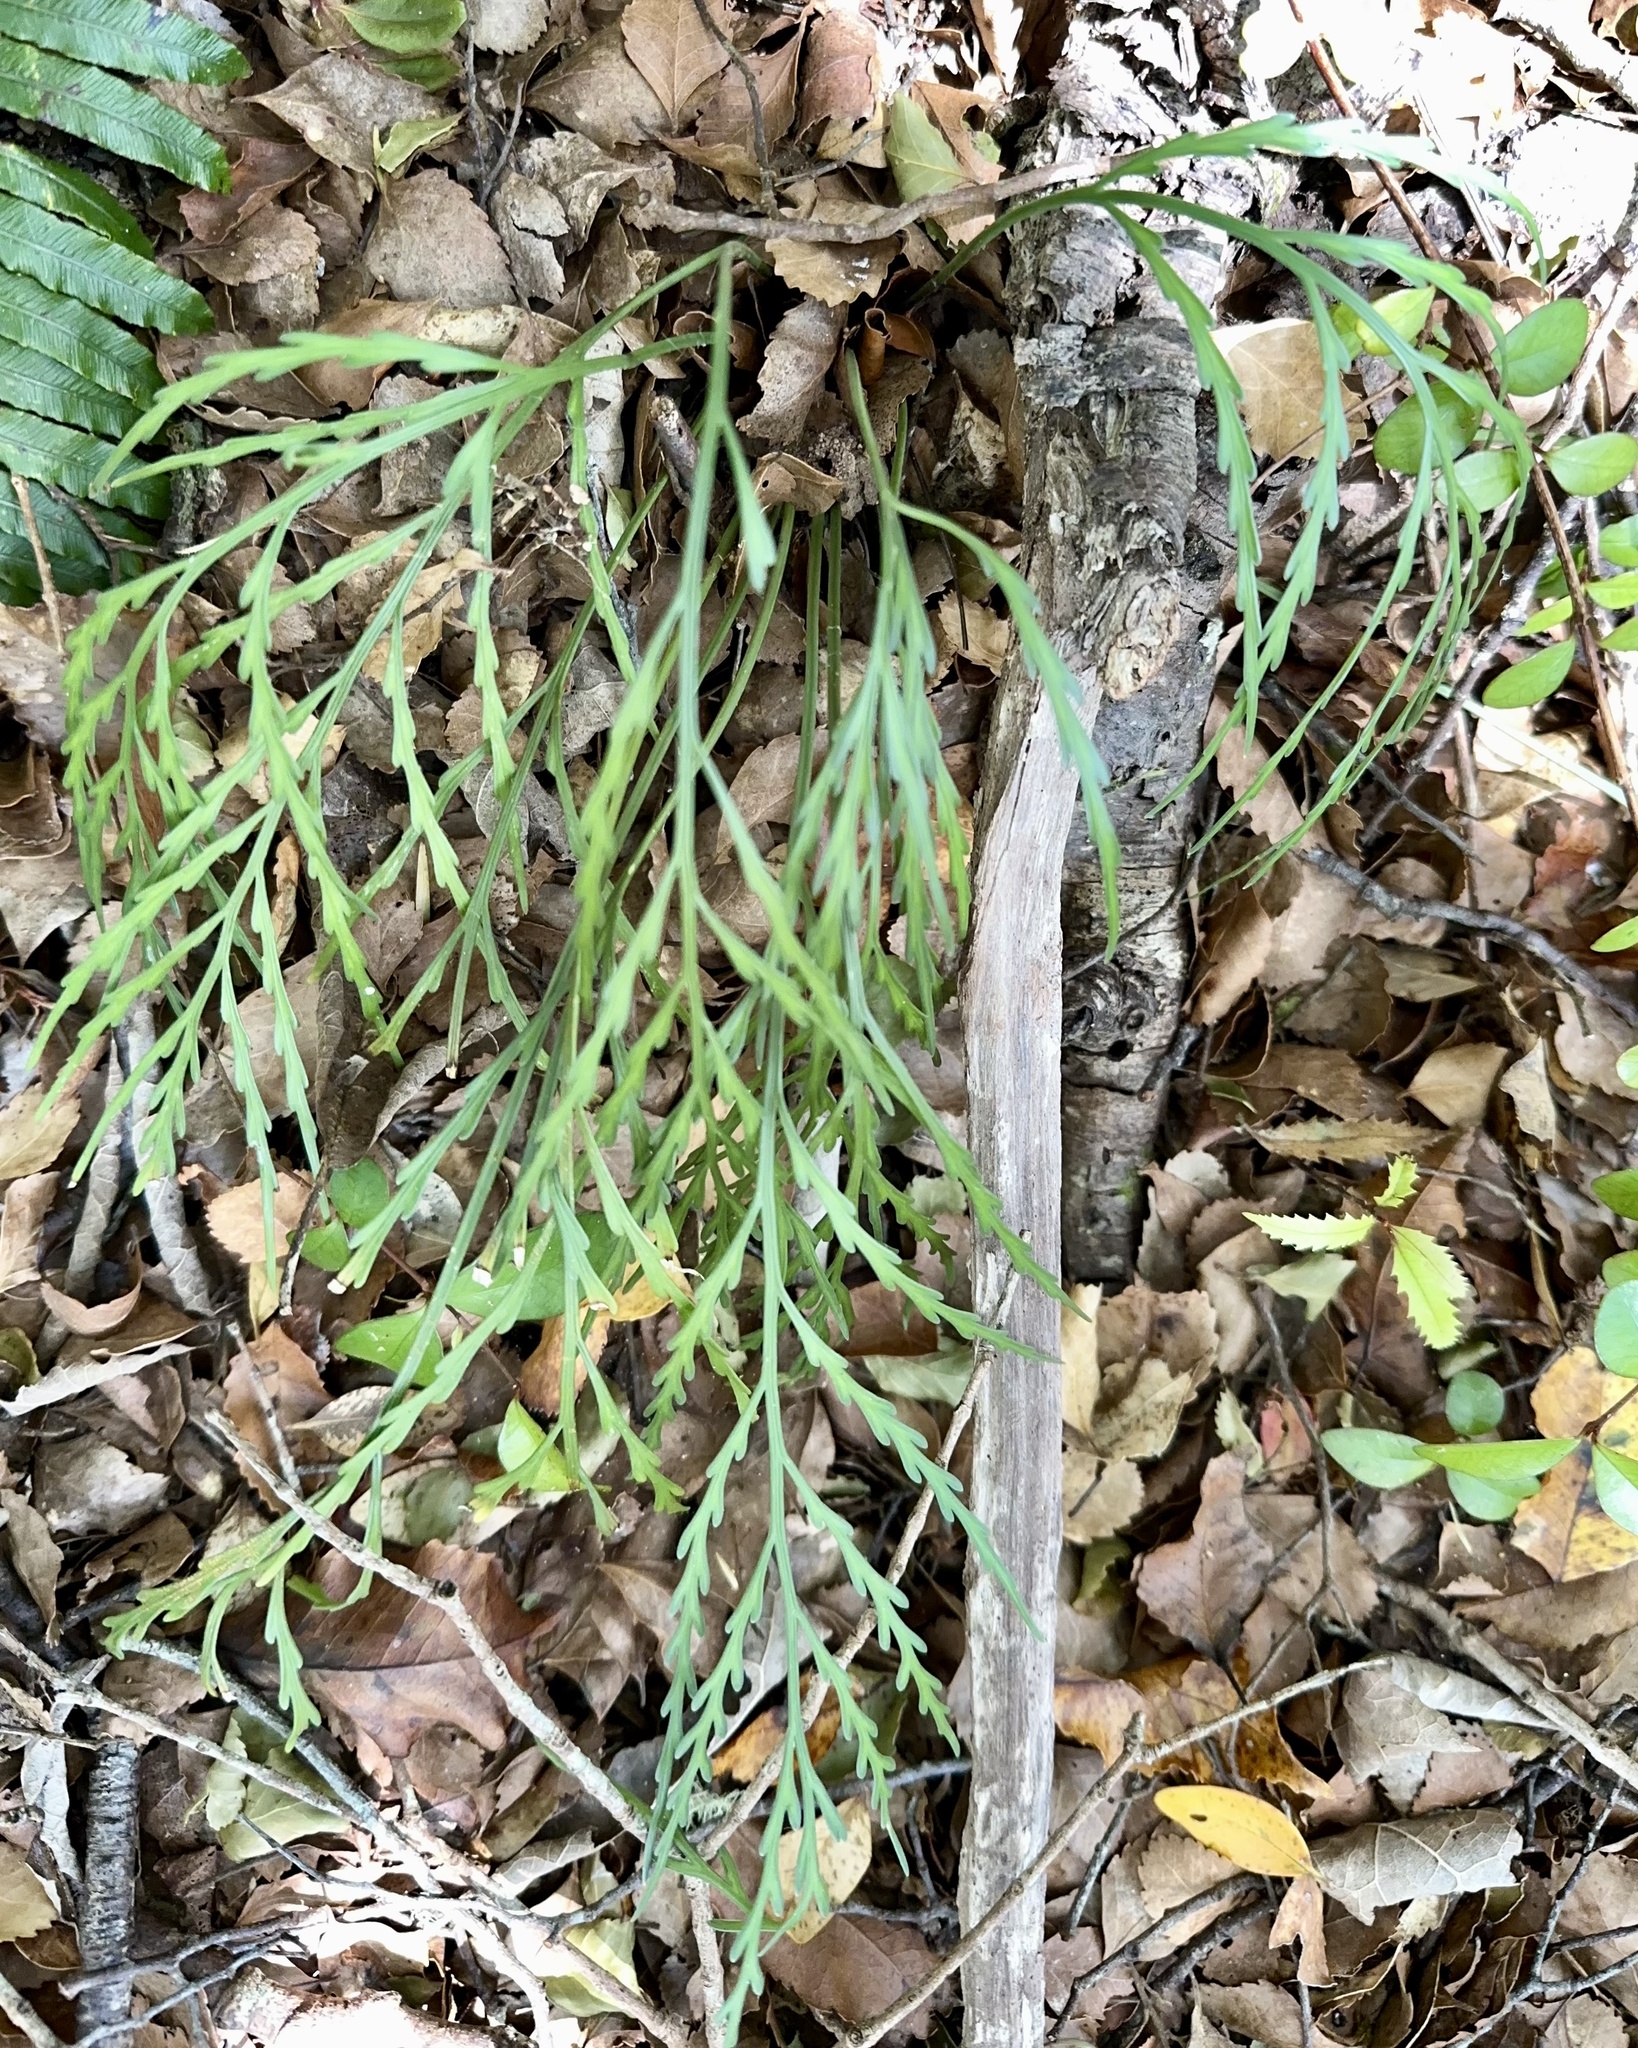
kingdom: Plantae
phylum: Tracheophyta
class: Polypodiopsida
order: Polypodiales
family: Aspleniaceae
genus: Asplenium
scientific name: Asplenium flaccidum
